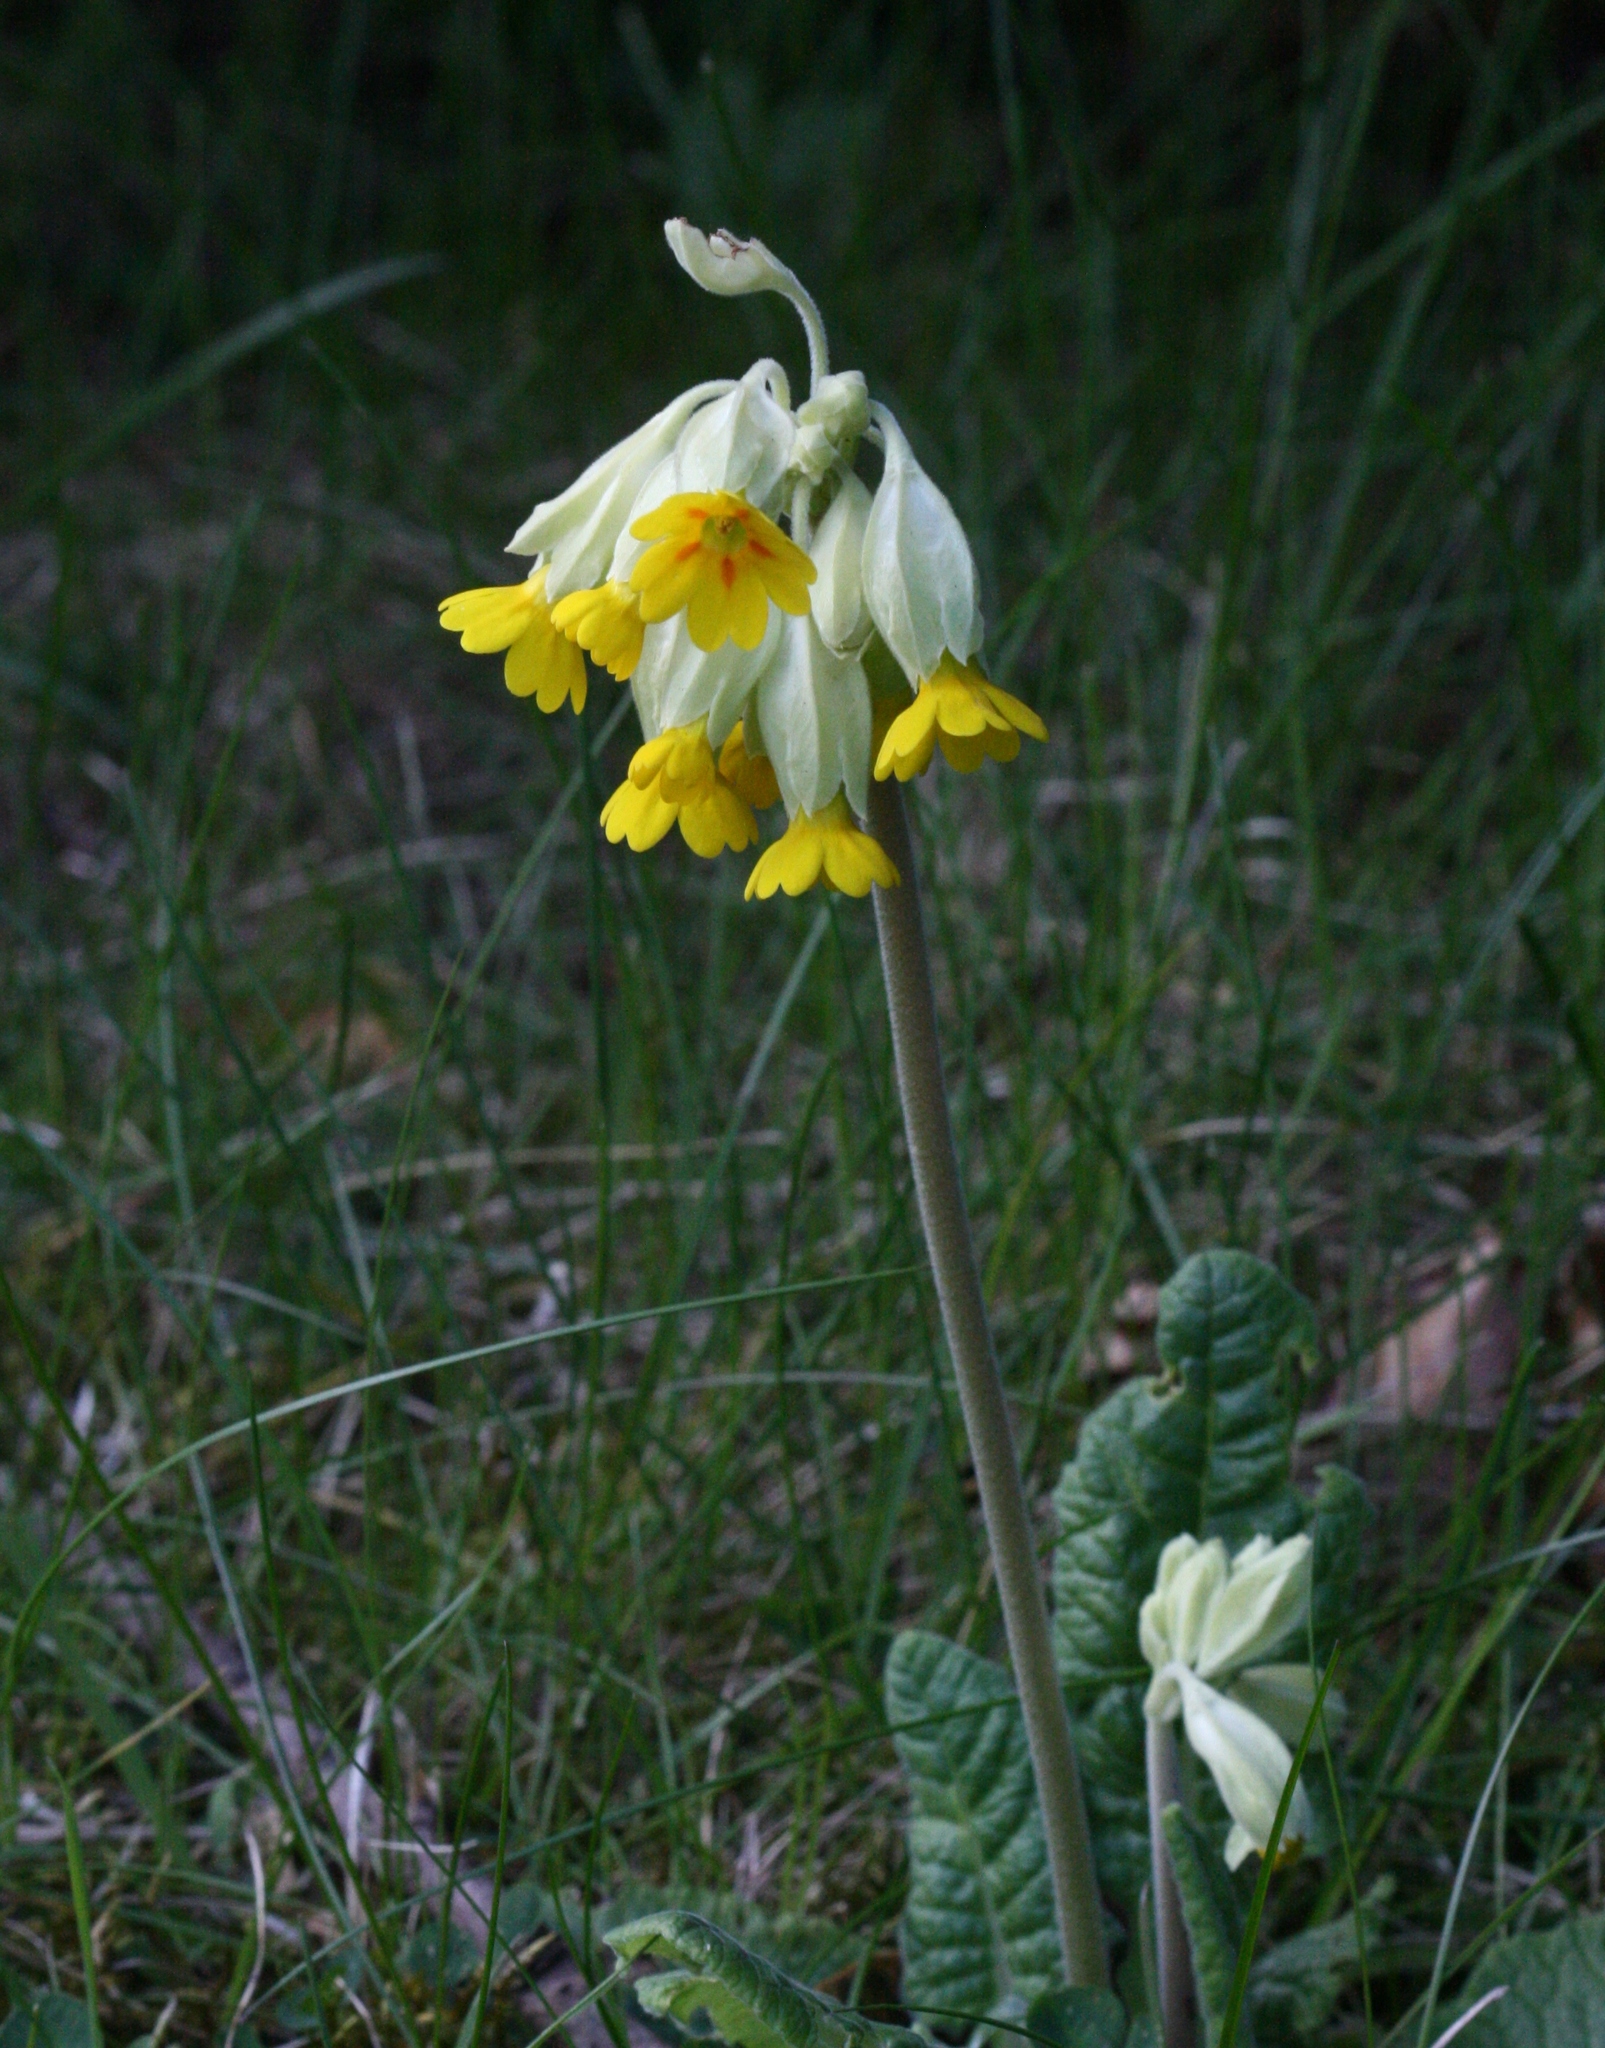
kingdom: Plantae
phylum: Tracheophyta
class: Magnoliopsida
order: Ericales
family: Primulaceae
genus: Primula
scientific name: Primula veris
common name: Cowslip
